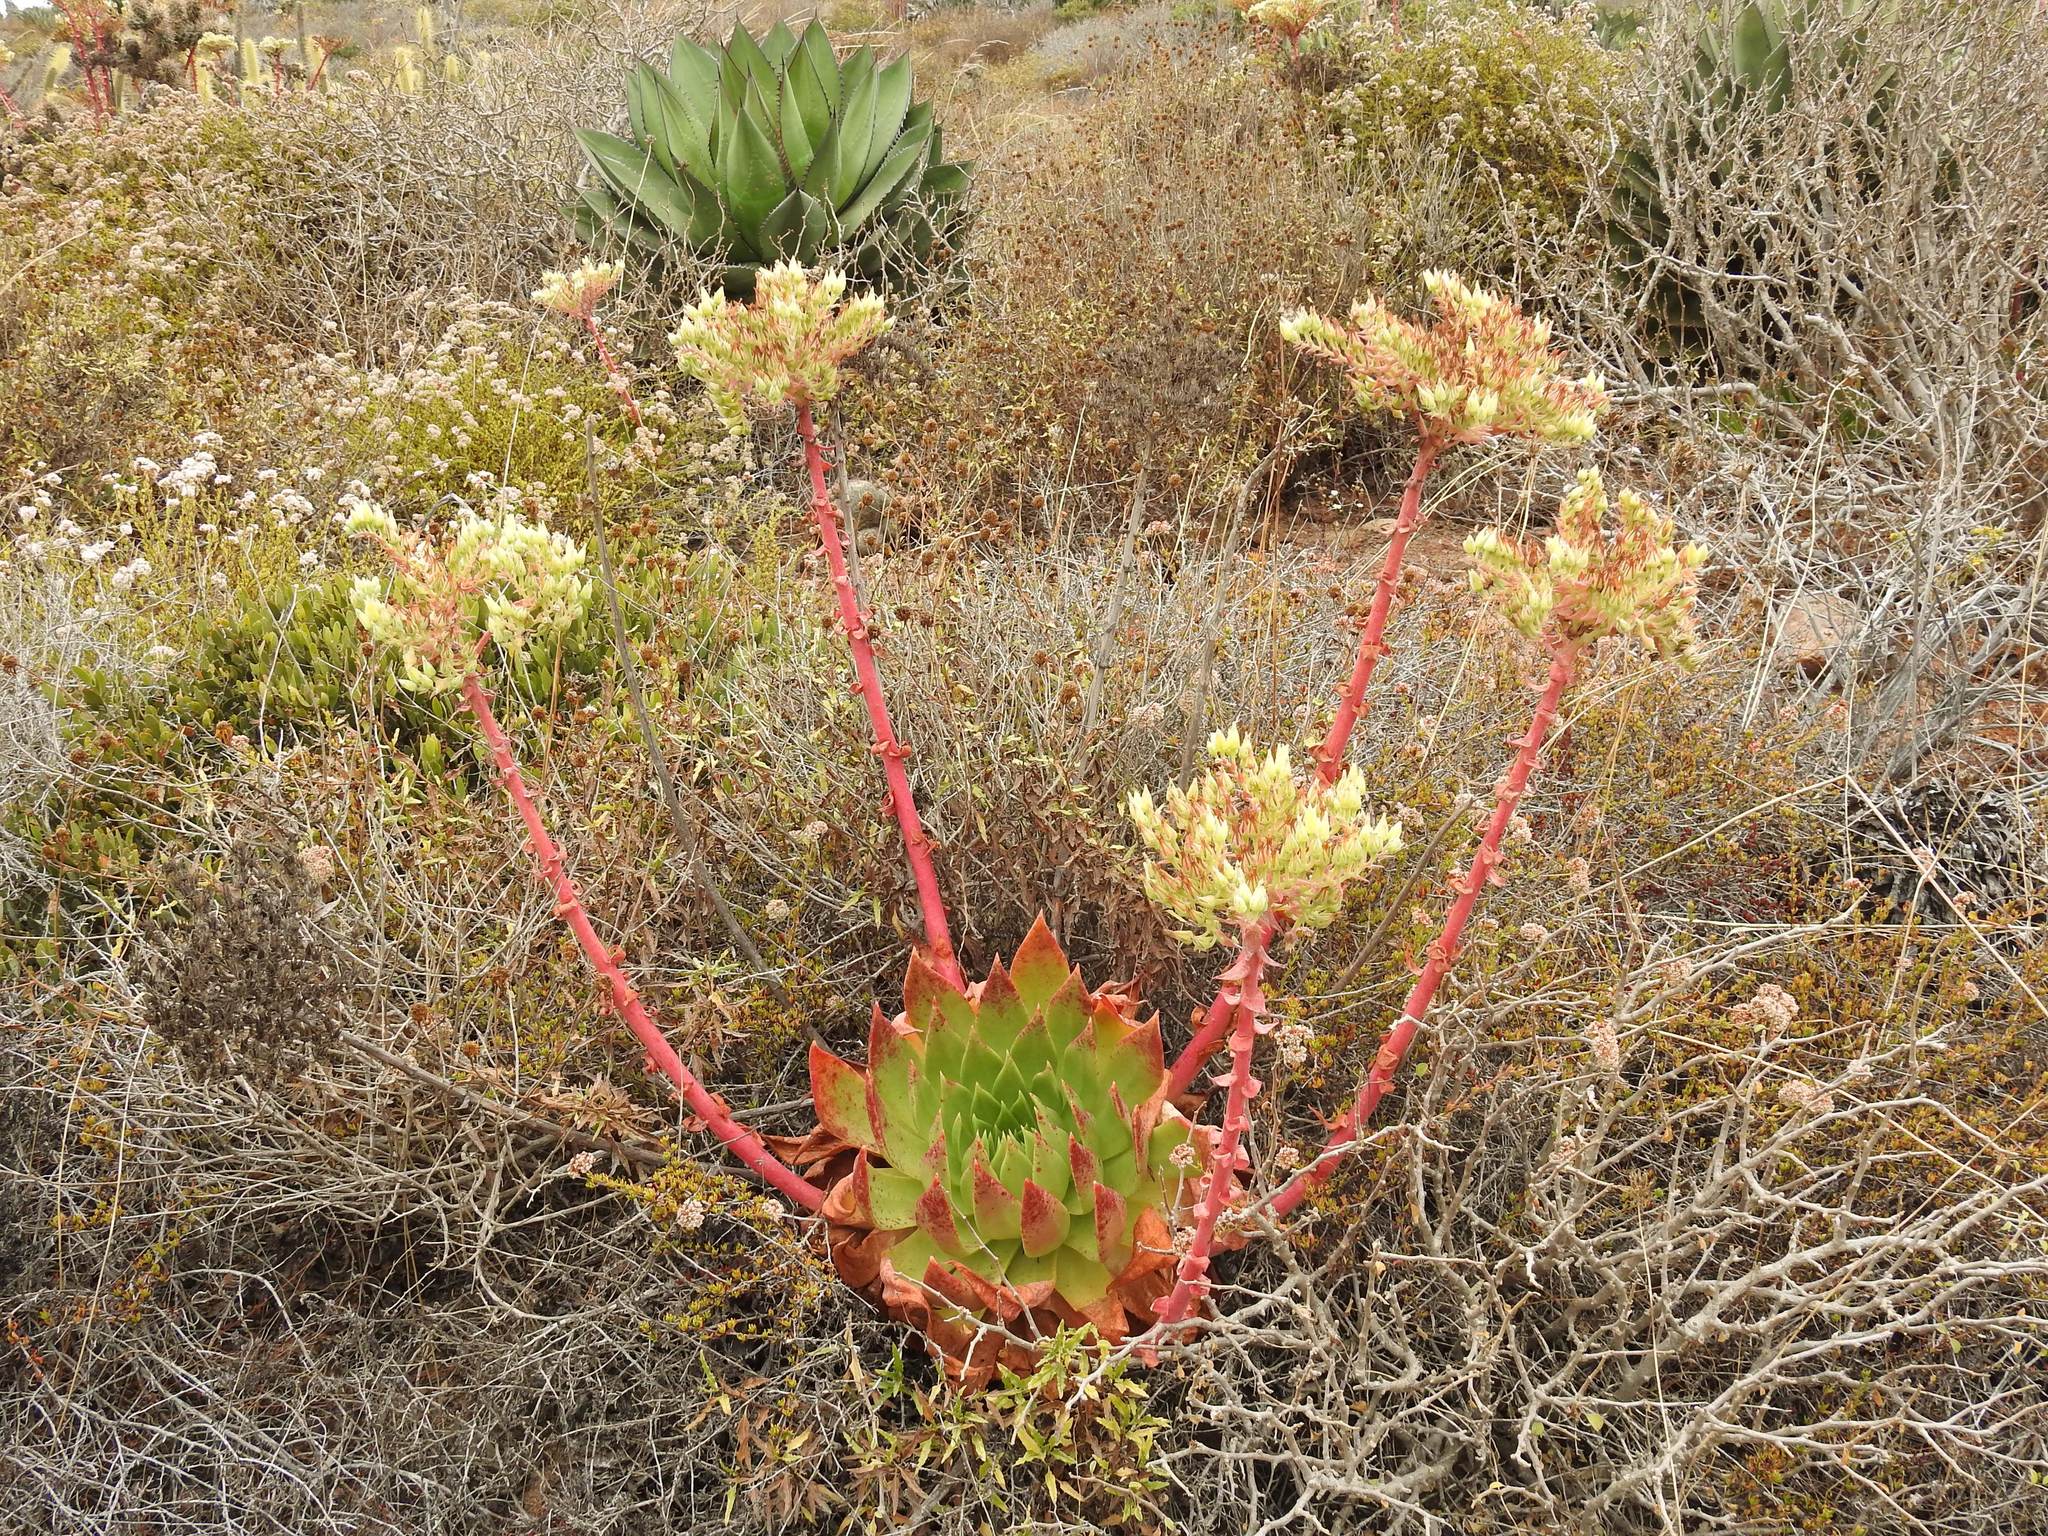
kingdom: Plantae
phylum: Tracheophyta
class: Magnoliopsida
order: Saxifragales
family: Crassulaceae
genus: Dudleya
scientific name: Dudleya brittonii
